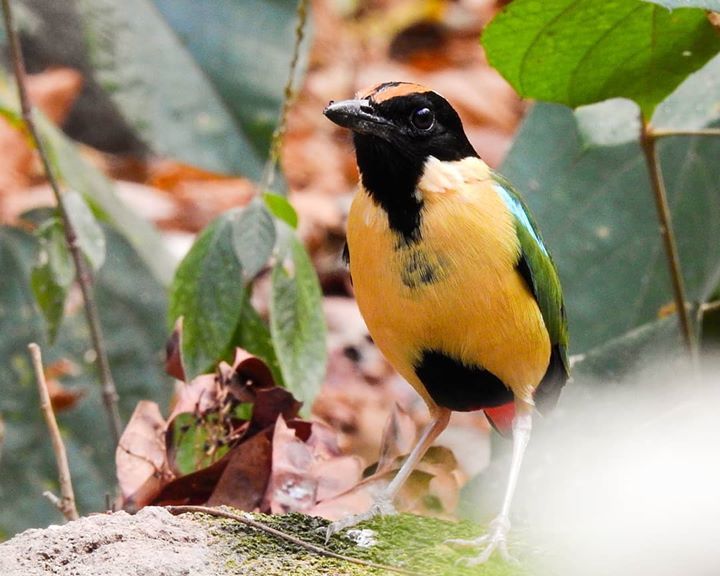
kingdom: Animalia
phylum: Chordata
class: Aves
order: Passeriformes
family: Pittidae
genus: Pitta
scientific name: Pitta concinna
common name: Ornate pitta
